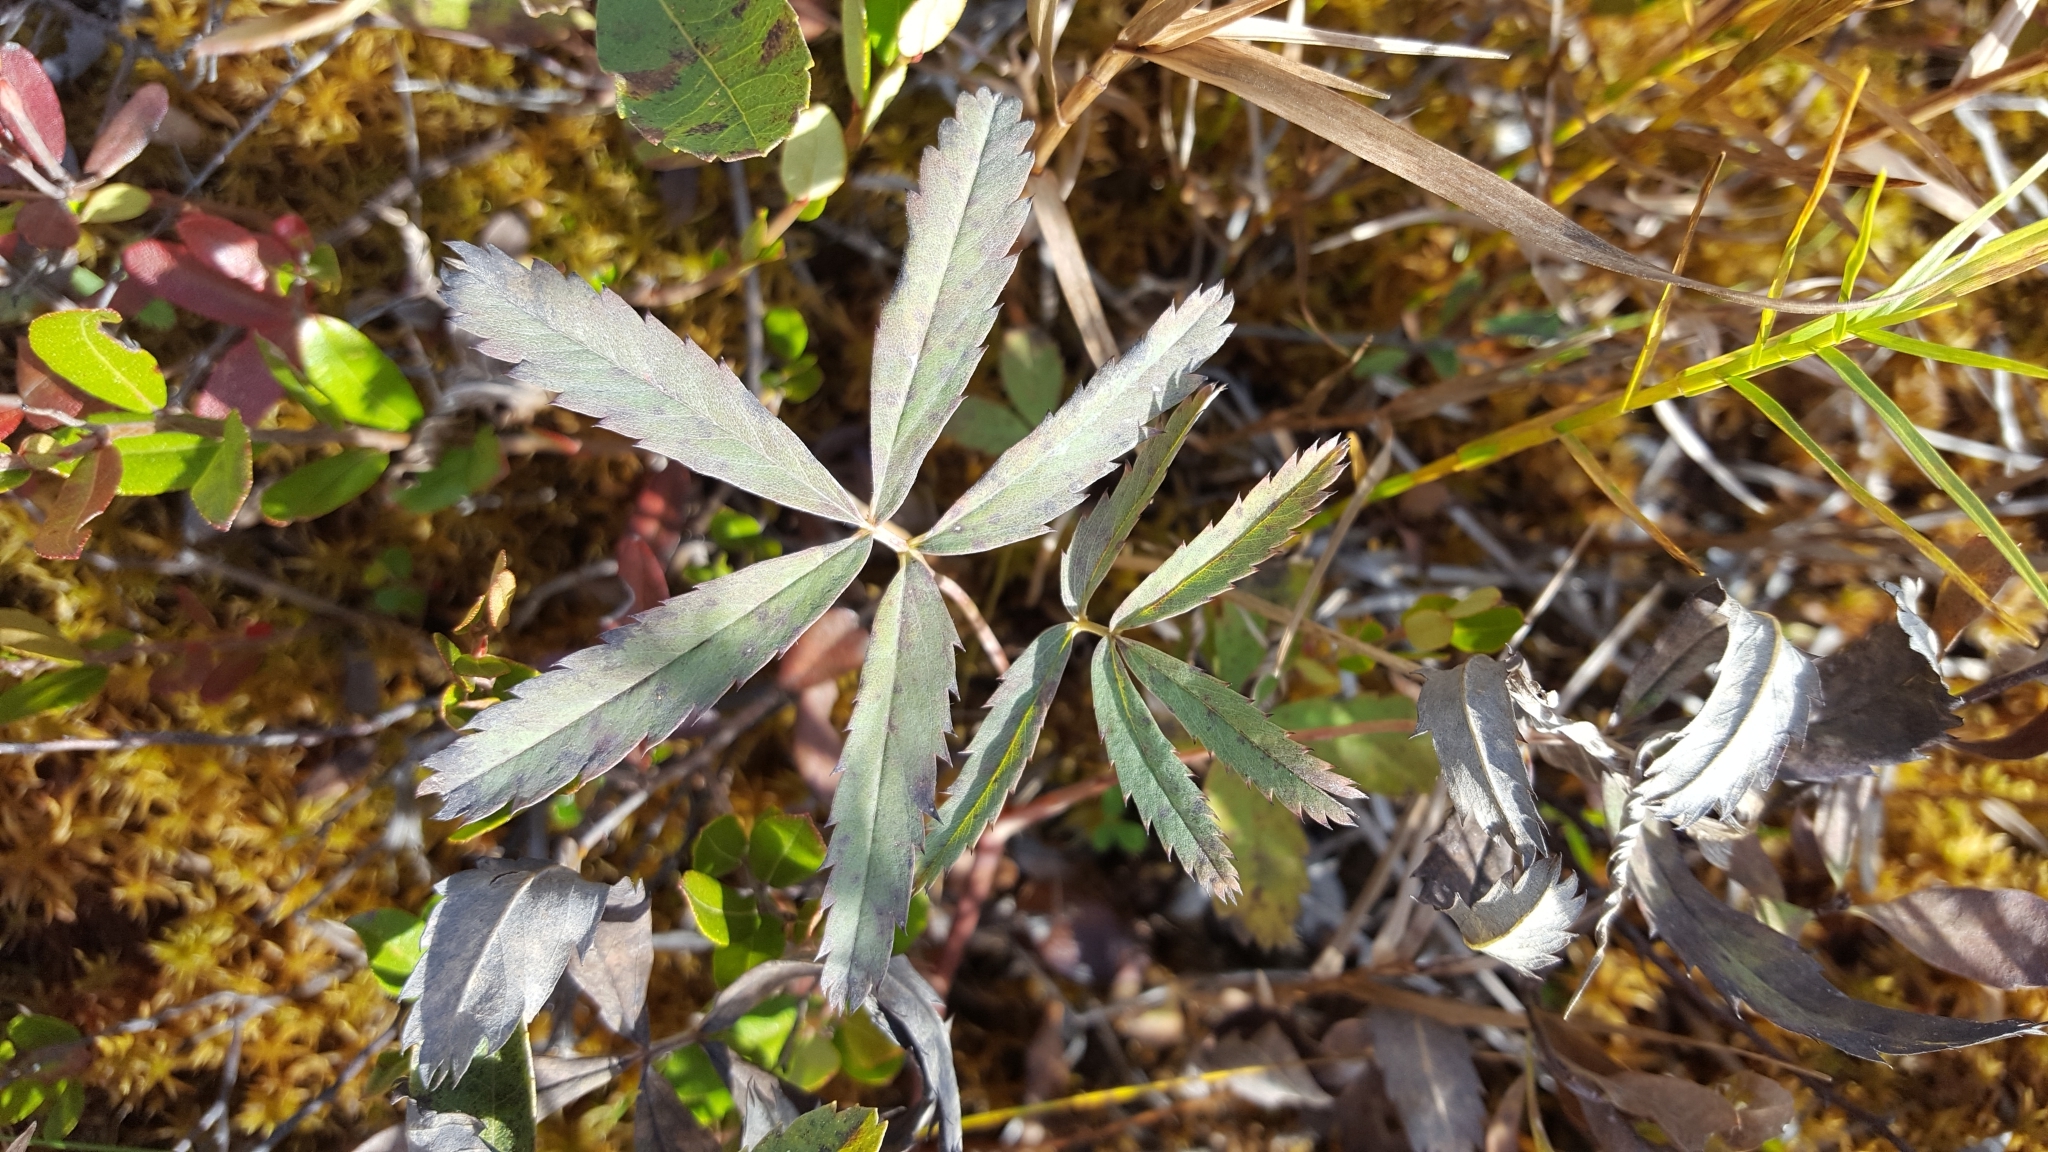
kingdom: Plantae
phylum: Tracheophyta
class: Magnoliopsida
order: Rosales
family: Rosaceae
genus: Comarum
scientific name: Comarum palustre
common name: Marsh cinquefoil
